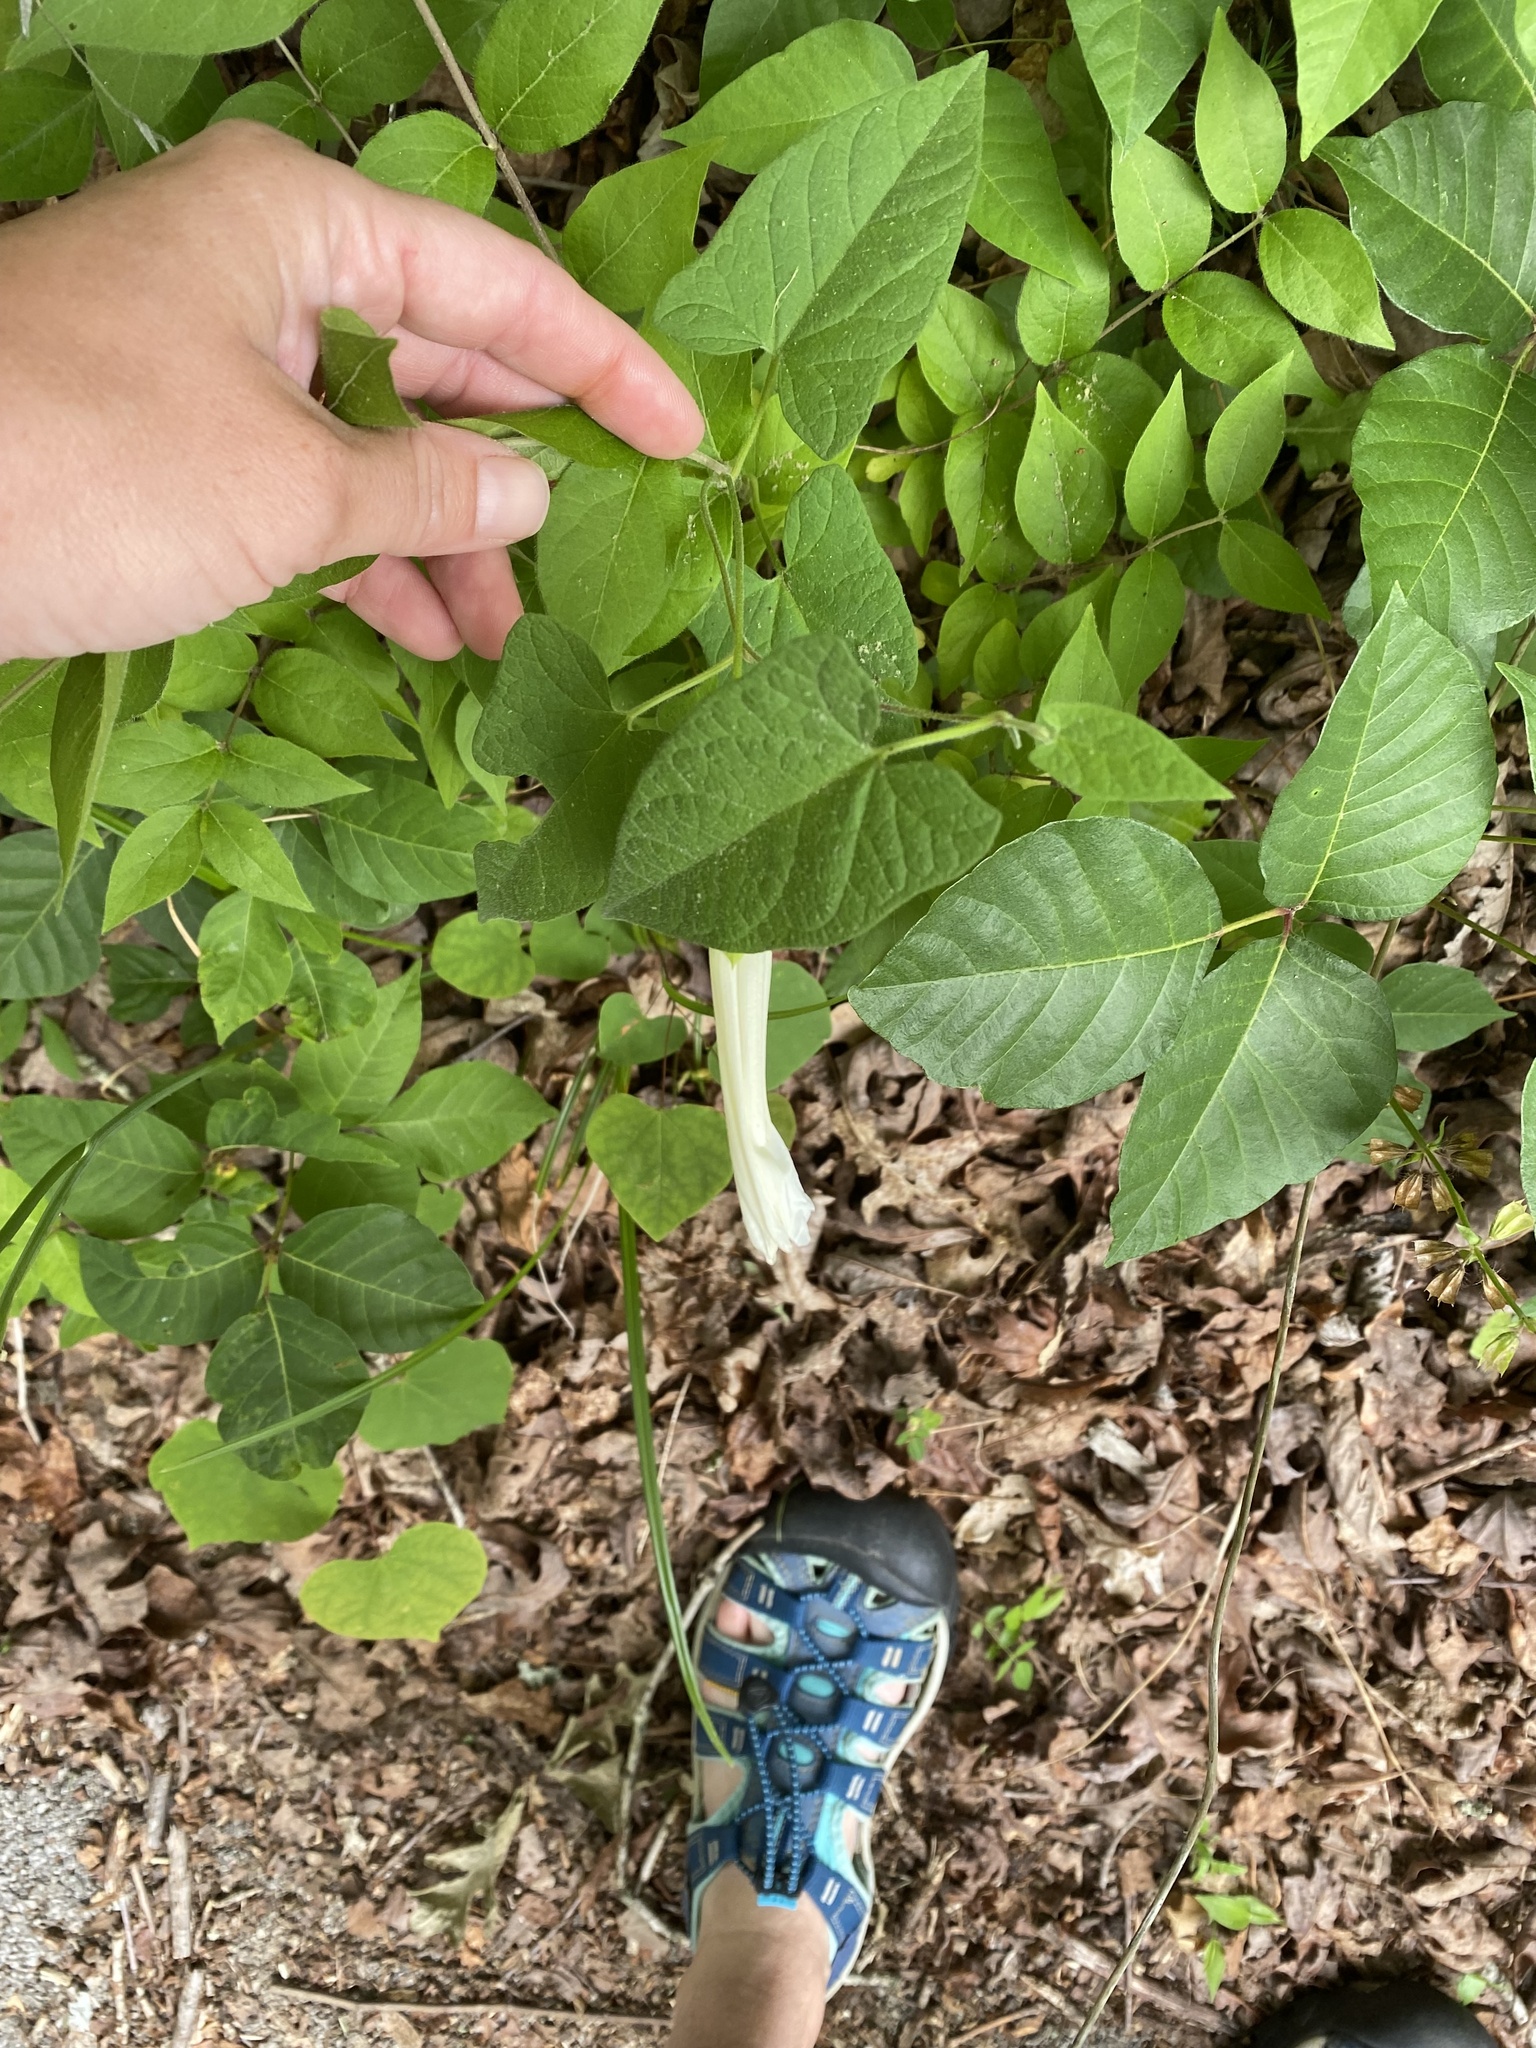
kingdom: Plantae
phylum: Tracheophyta
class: Magnoliopsida
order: Solanales
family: Convolvulaceae
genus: Ipomoea
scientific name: Ipomoea pandurata
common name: Man-of-the-earth
